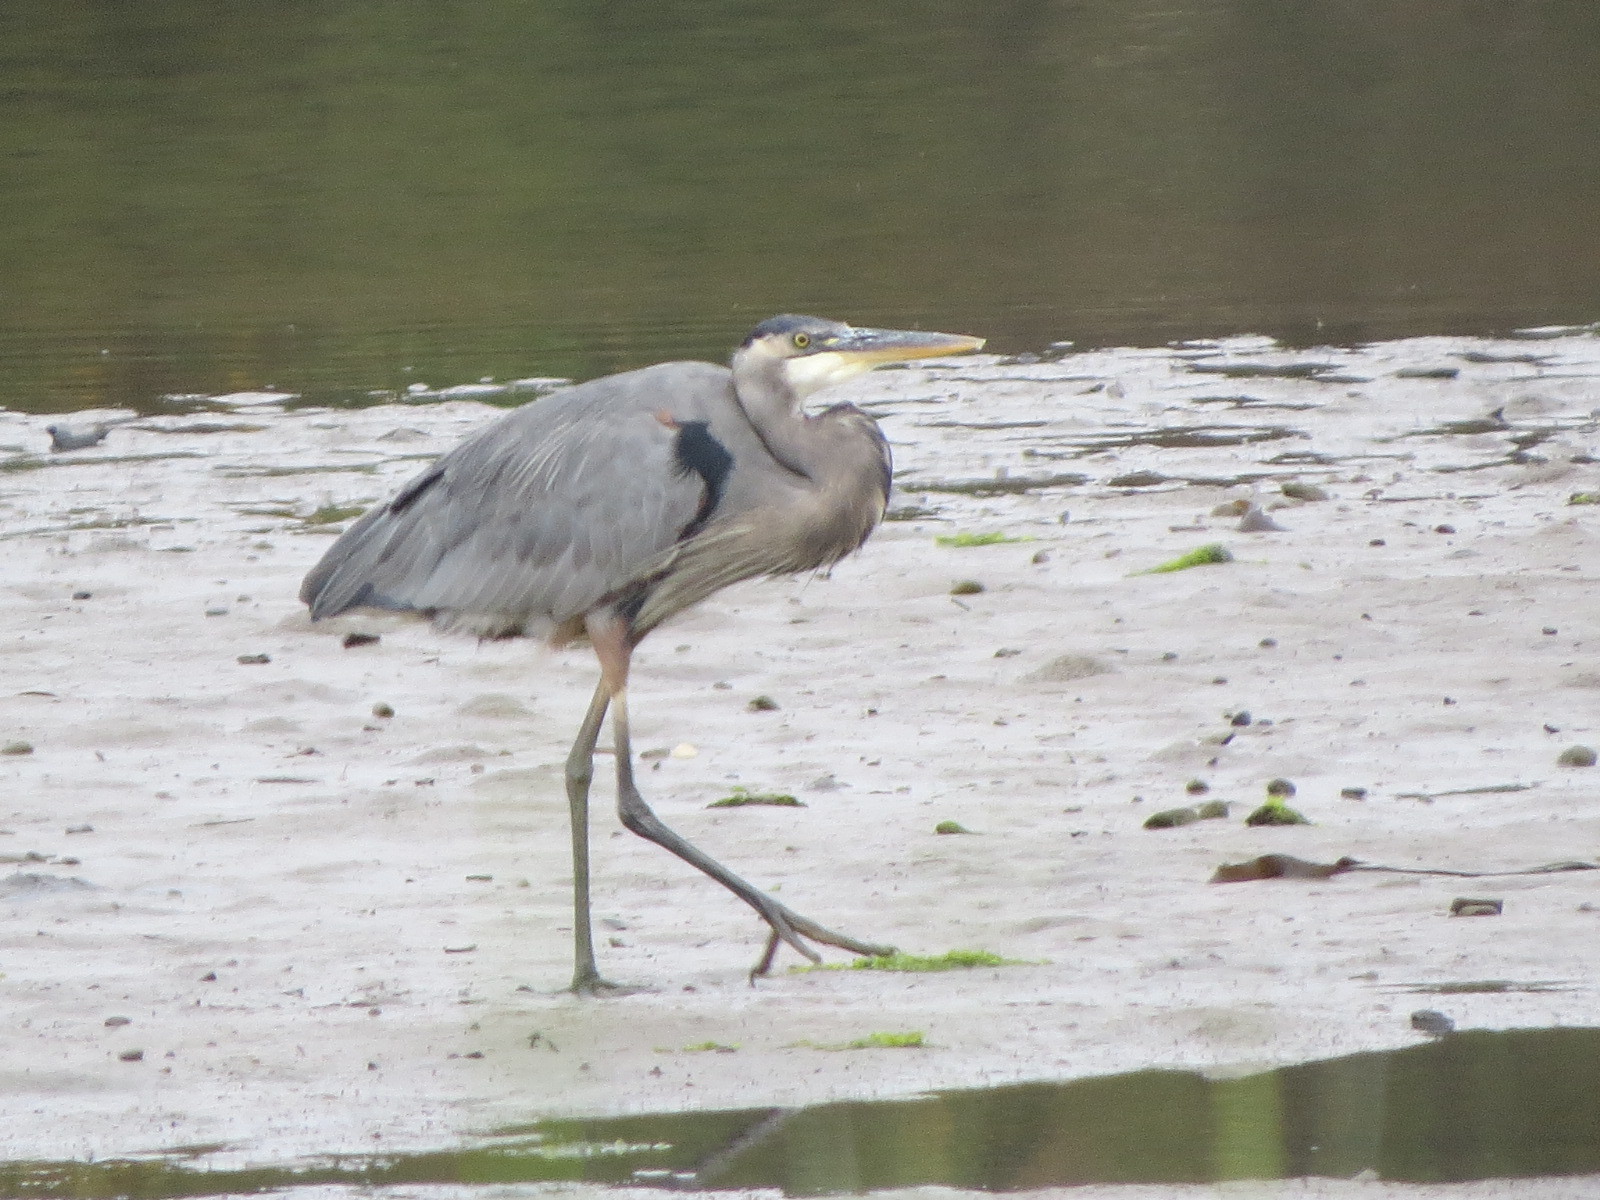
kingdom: Animalia
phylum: Chordata
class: Aves
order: Pelecaniformes
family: Ardeidae
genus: Ardea
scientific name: Ardea herodias
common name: Great blue heron
